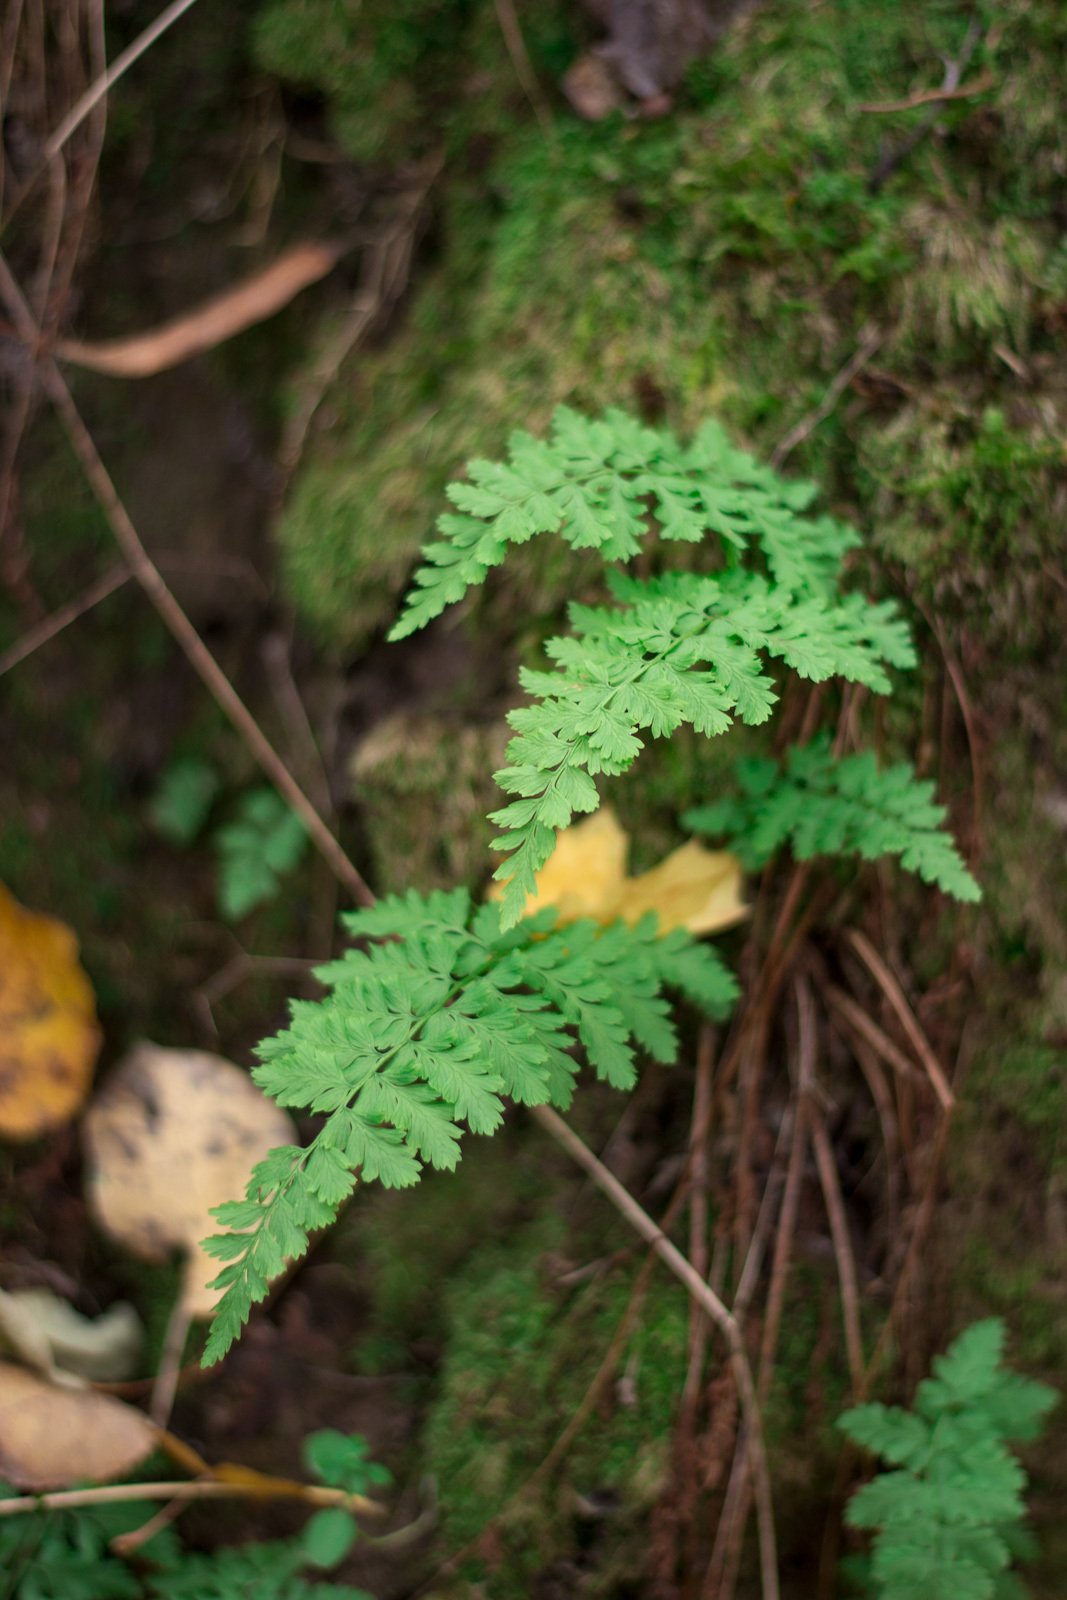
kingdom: Plantae
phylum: Tracheophyta
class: Polypodiopsida
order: Polypodiales
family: Cystopteridaceae
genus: Cystopteris
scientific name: Cystopteris fragilis
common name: Brittle bladder fern
